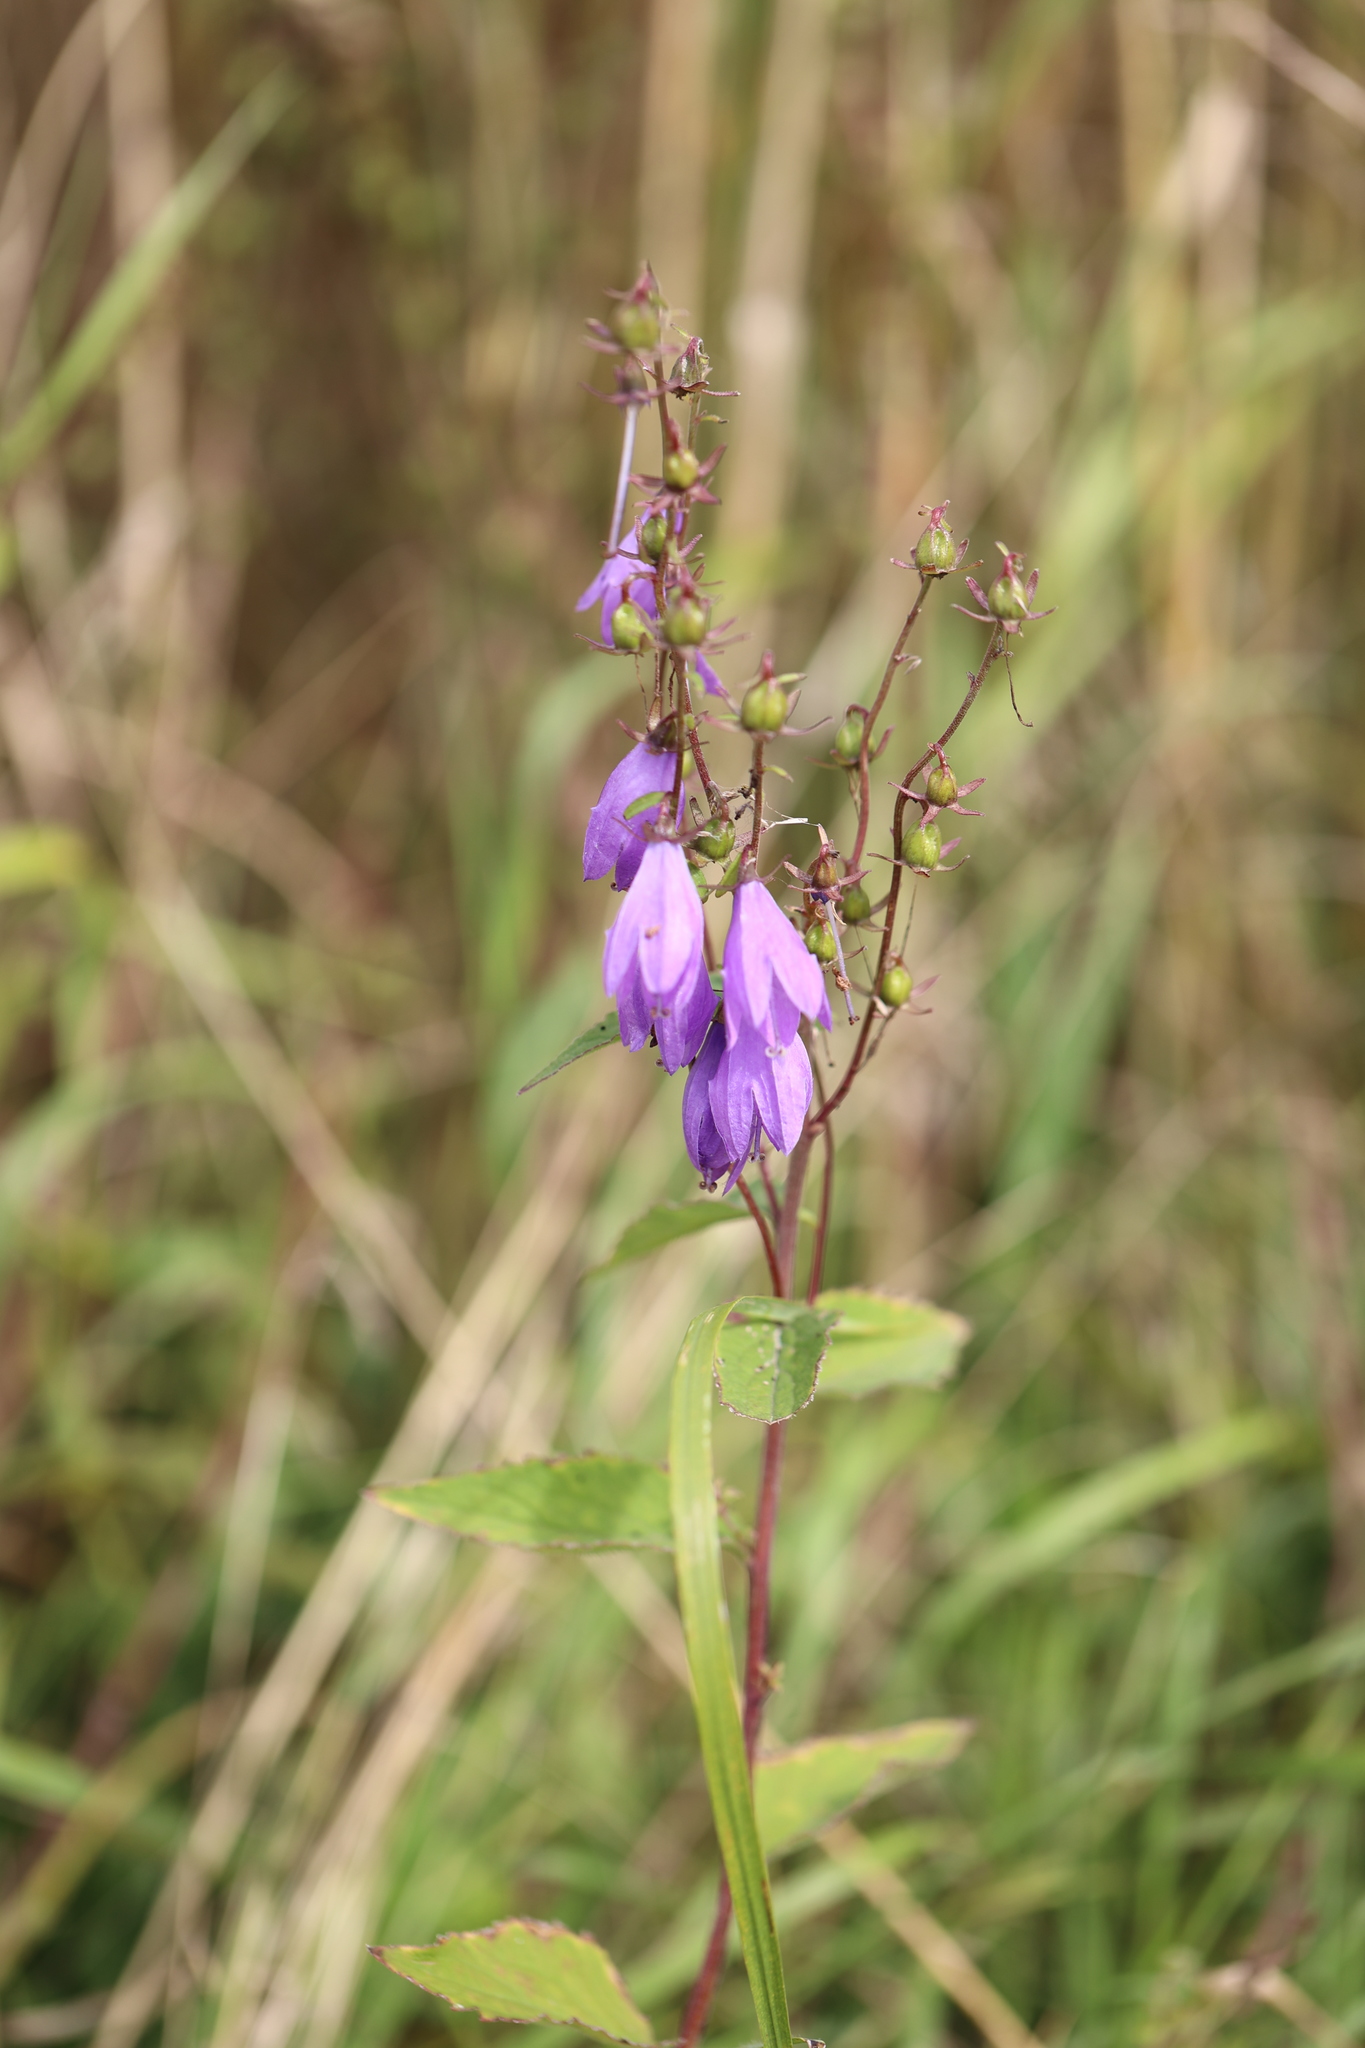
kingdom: Plantae
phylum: Tracheophyta
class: Magnoliopsida
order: Asterales
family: Campanulaceae
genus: Campanula
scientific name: Campanula rapunculoides
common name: Creeping bellflower
